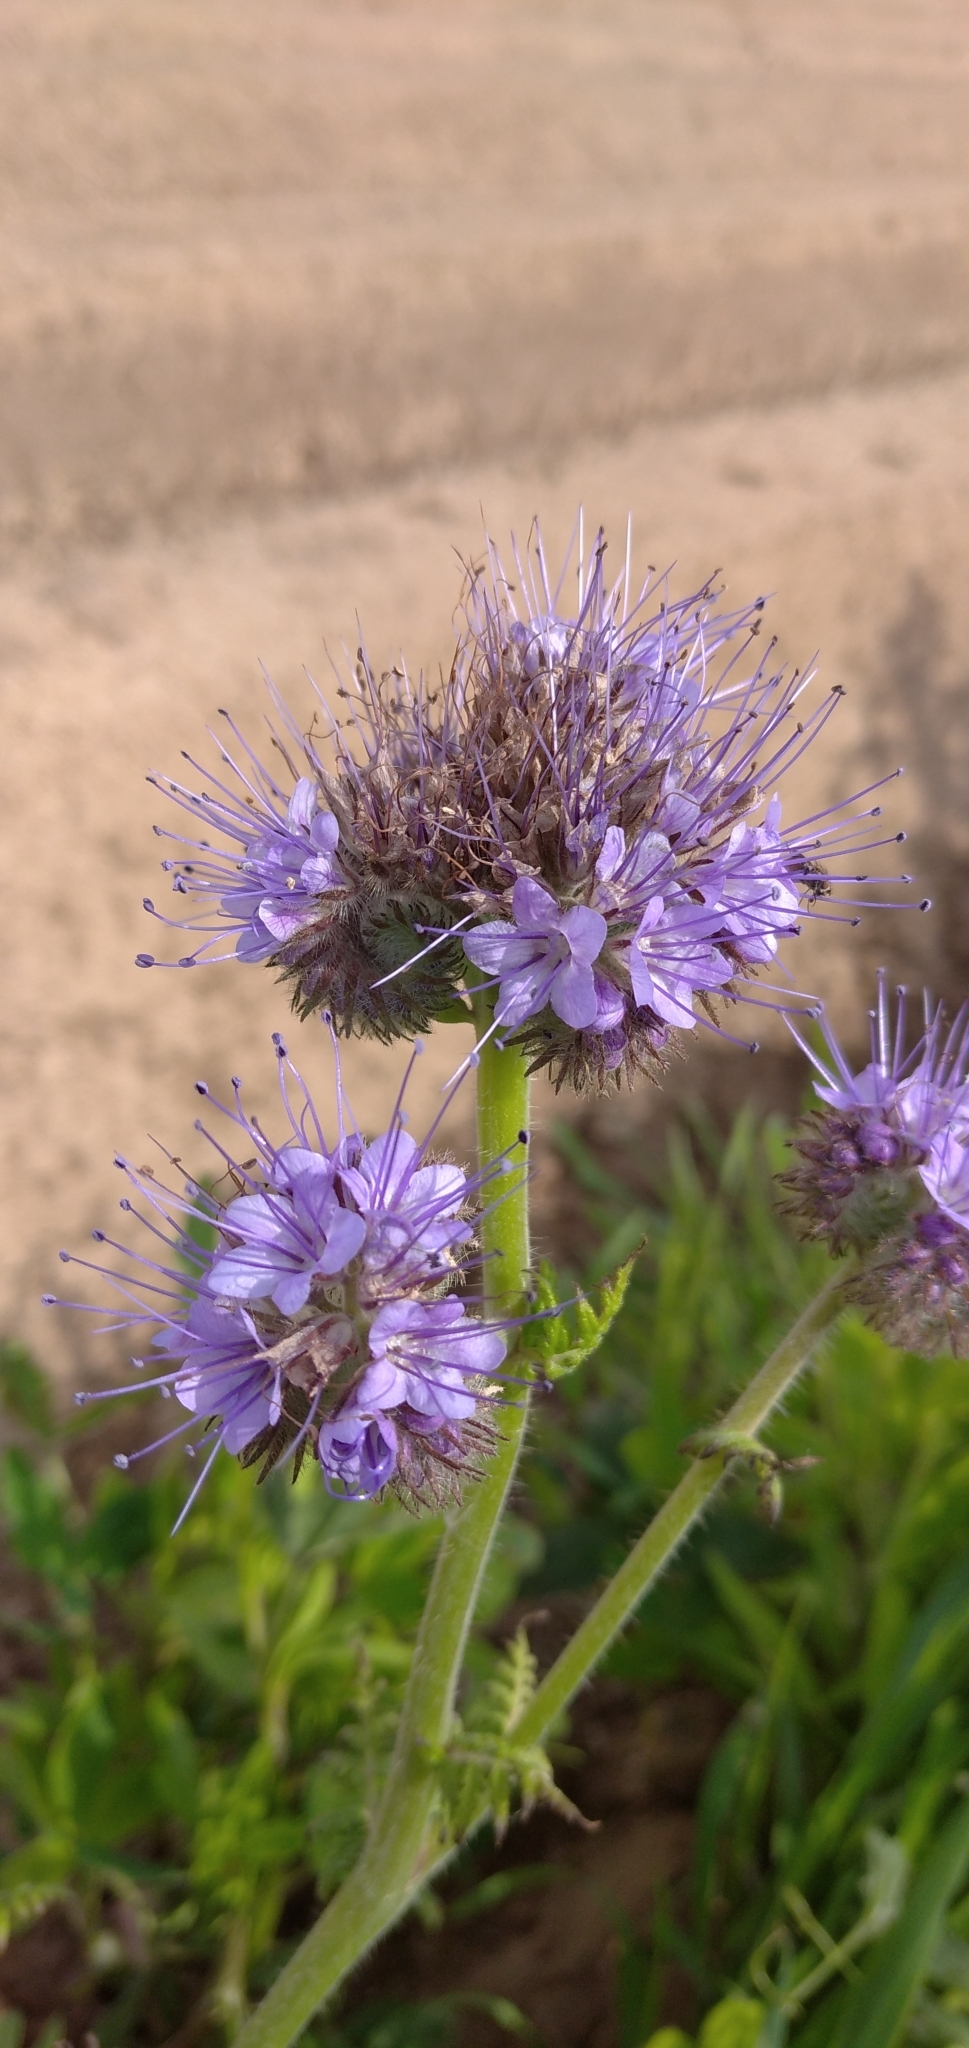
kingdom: Plantae
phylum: Tracheophyta
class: Magnoliopsida
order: Boraginales
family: Hydrophyllaceae
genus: Phacelia
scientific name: Phacelia tanacetifolia
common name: Phacelia
